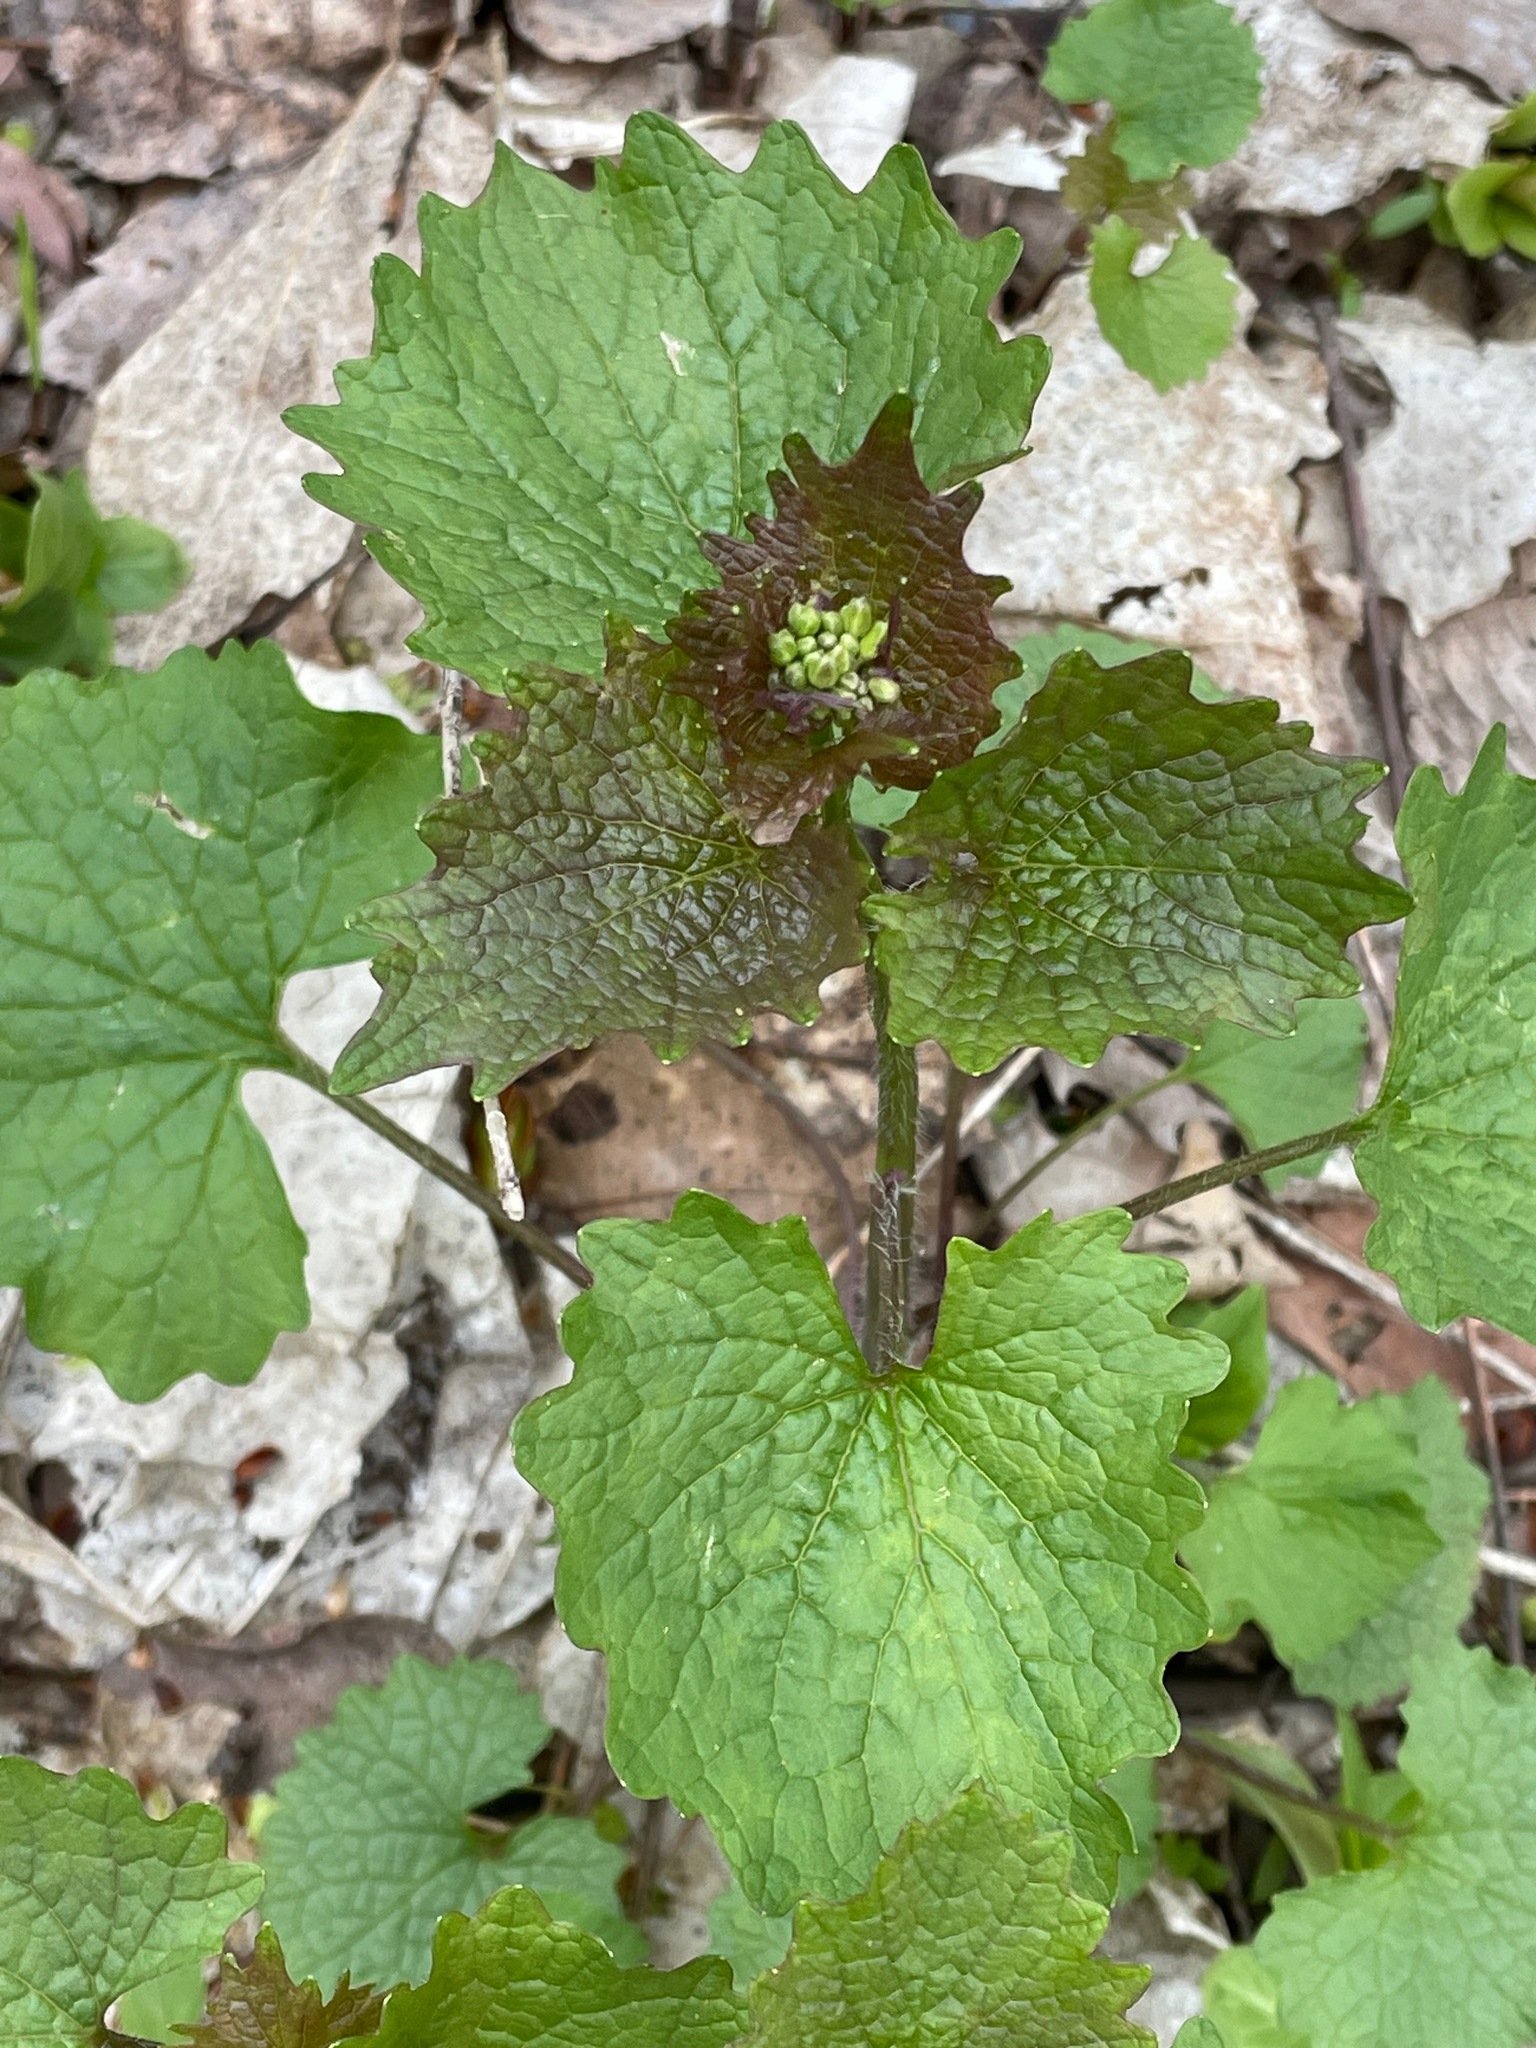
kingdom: Plantae
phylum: Tracheophyta
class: Magnoliopsida
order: Brassicales
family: Brassicaceae
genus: Alliaria
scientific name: Alliaria petiolata
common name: Garlic mustard
